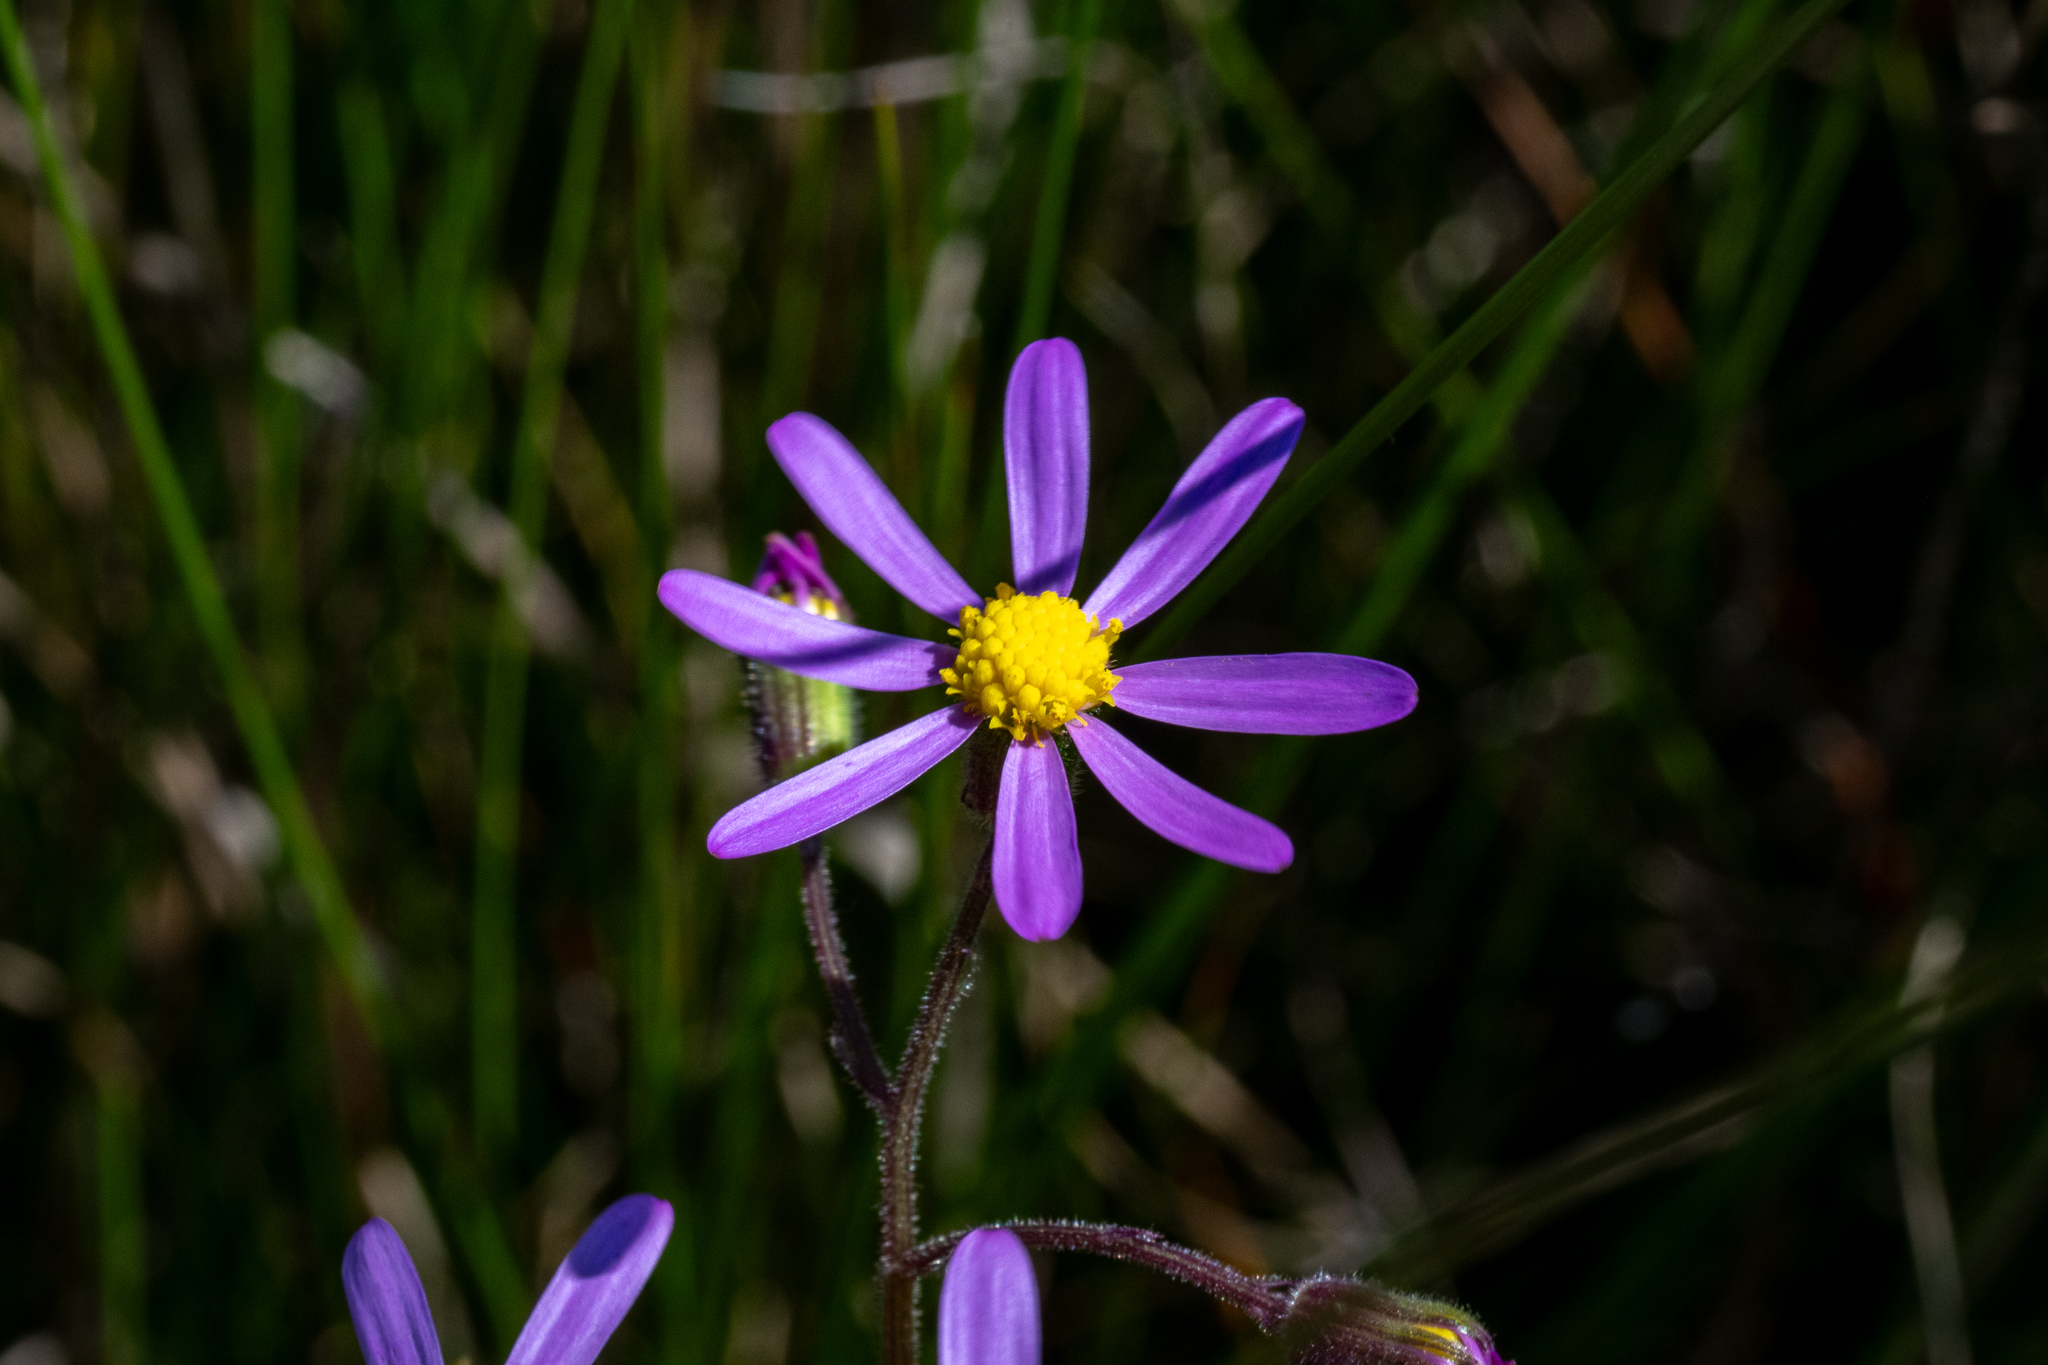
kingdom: Plantae
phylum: Tracheophyta
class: Magnoliopsida
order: Asterales
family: Asteraceae
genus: Senecio
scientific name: Senecio arenarius
